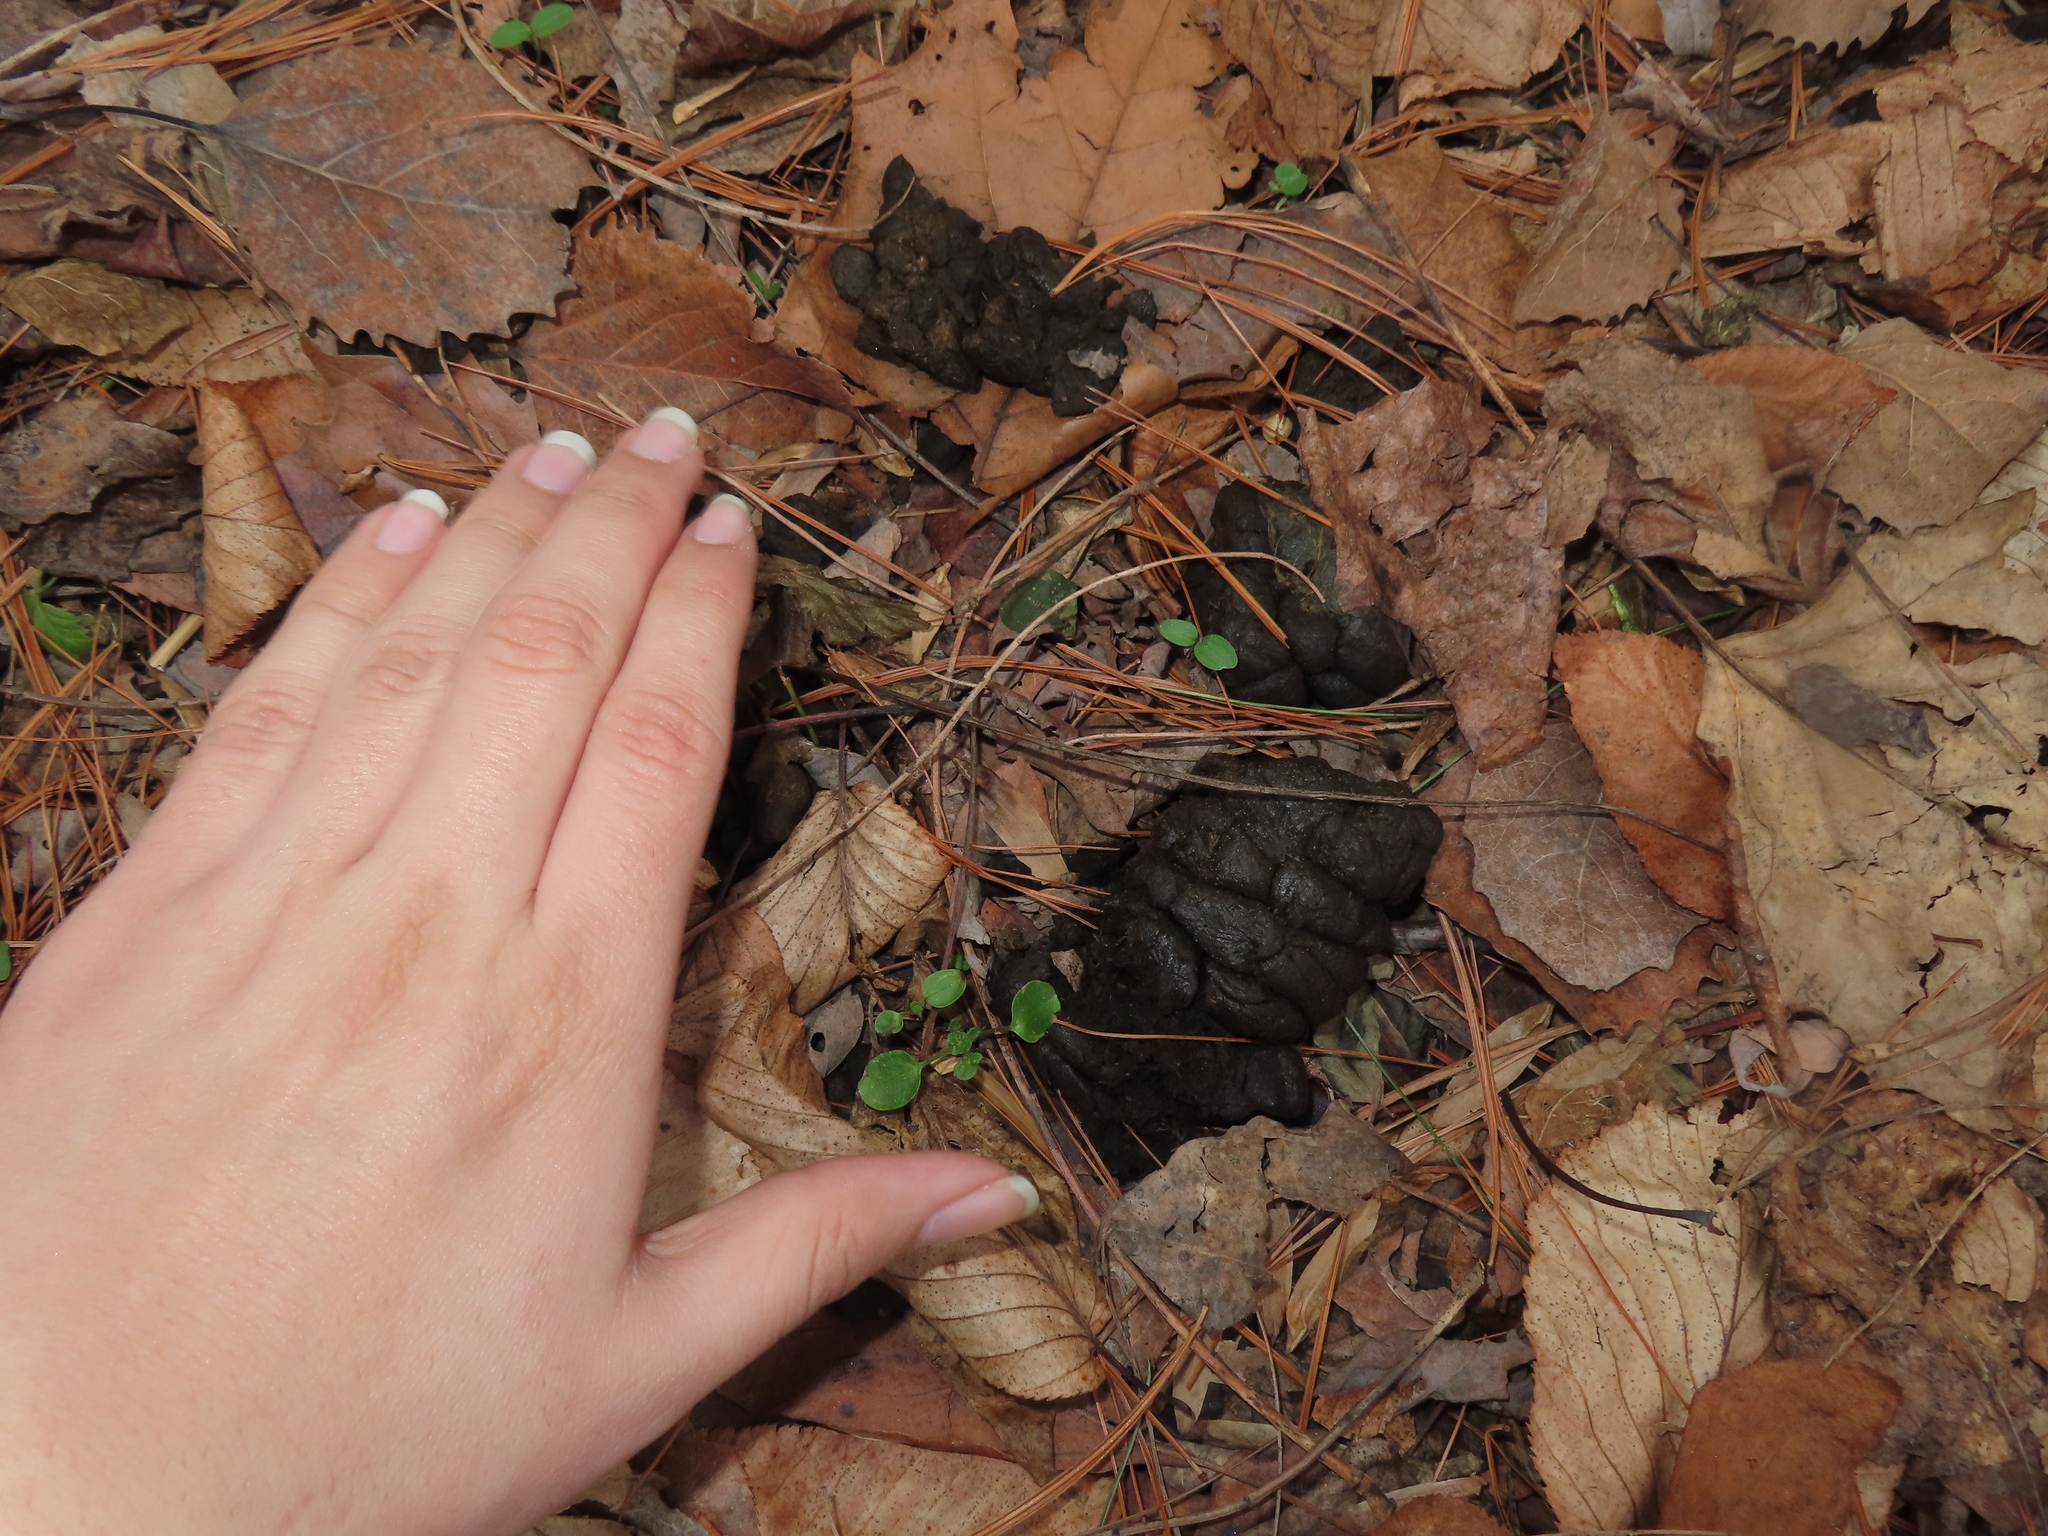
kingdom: Animalia
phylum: Chordata
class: Mammalia
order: Artiodactyla
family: Cervidae
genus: Odocoileus
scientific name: Odocoileus virginianus
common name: White-tailed deer
